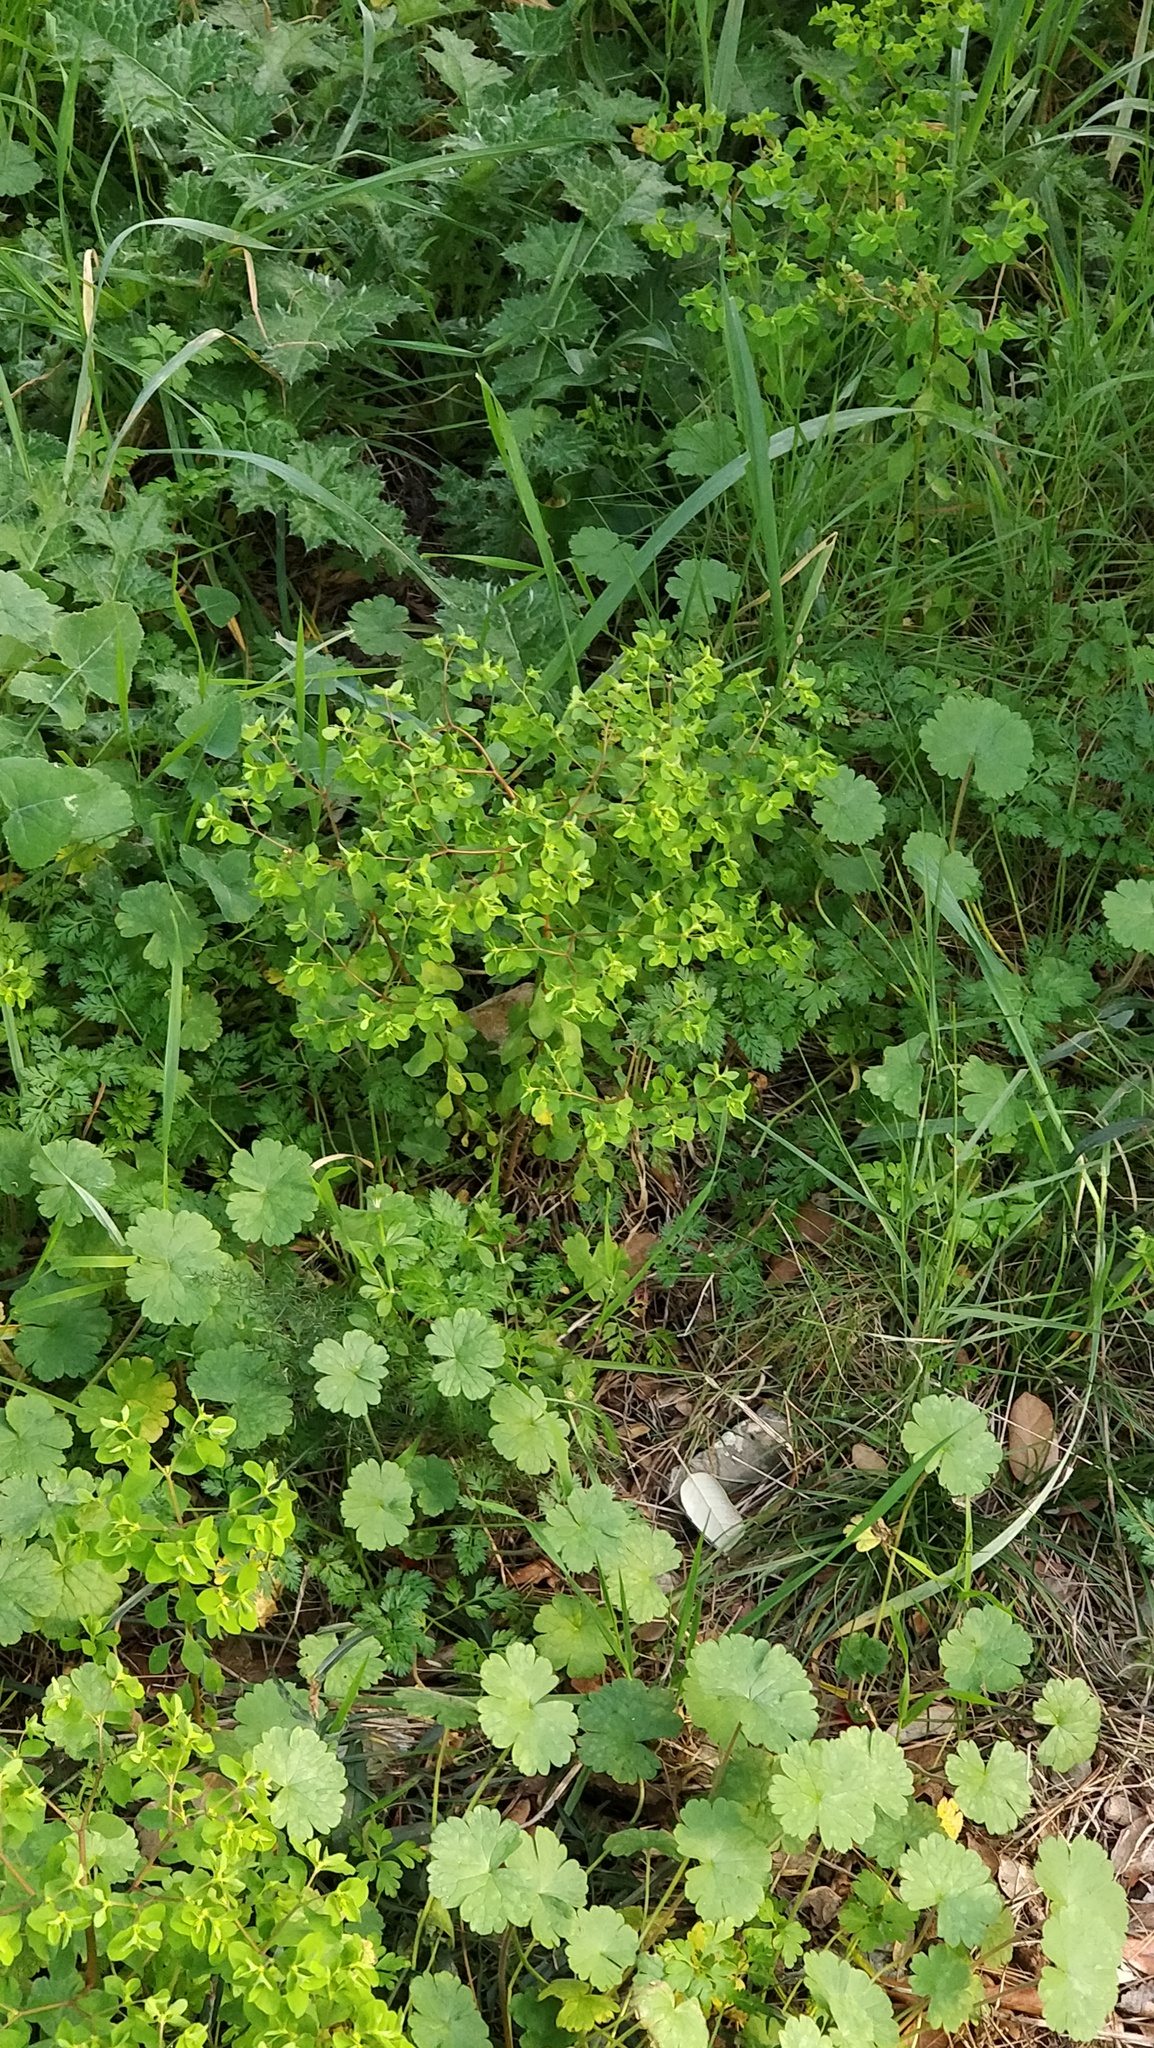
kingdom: Plantae
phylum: Tracheophyta
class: Magnoliopsida
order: Malpighiales
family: Euphorbiaceae
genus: Euphorbia
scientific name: Euphorbia peplus
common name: Petty spurge
